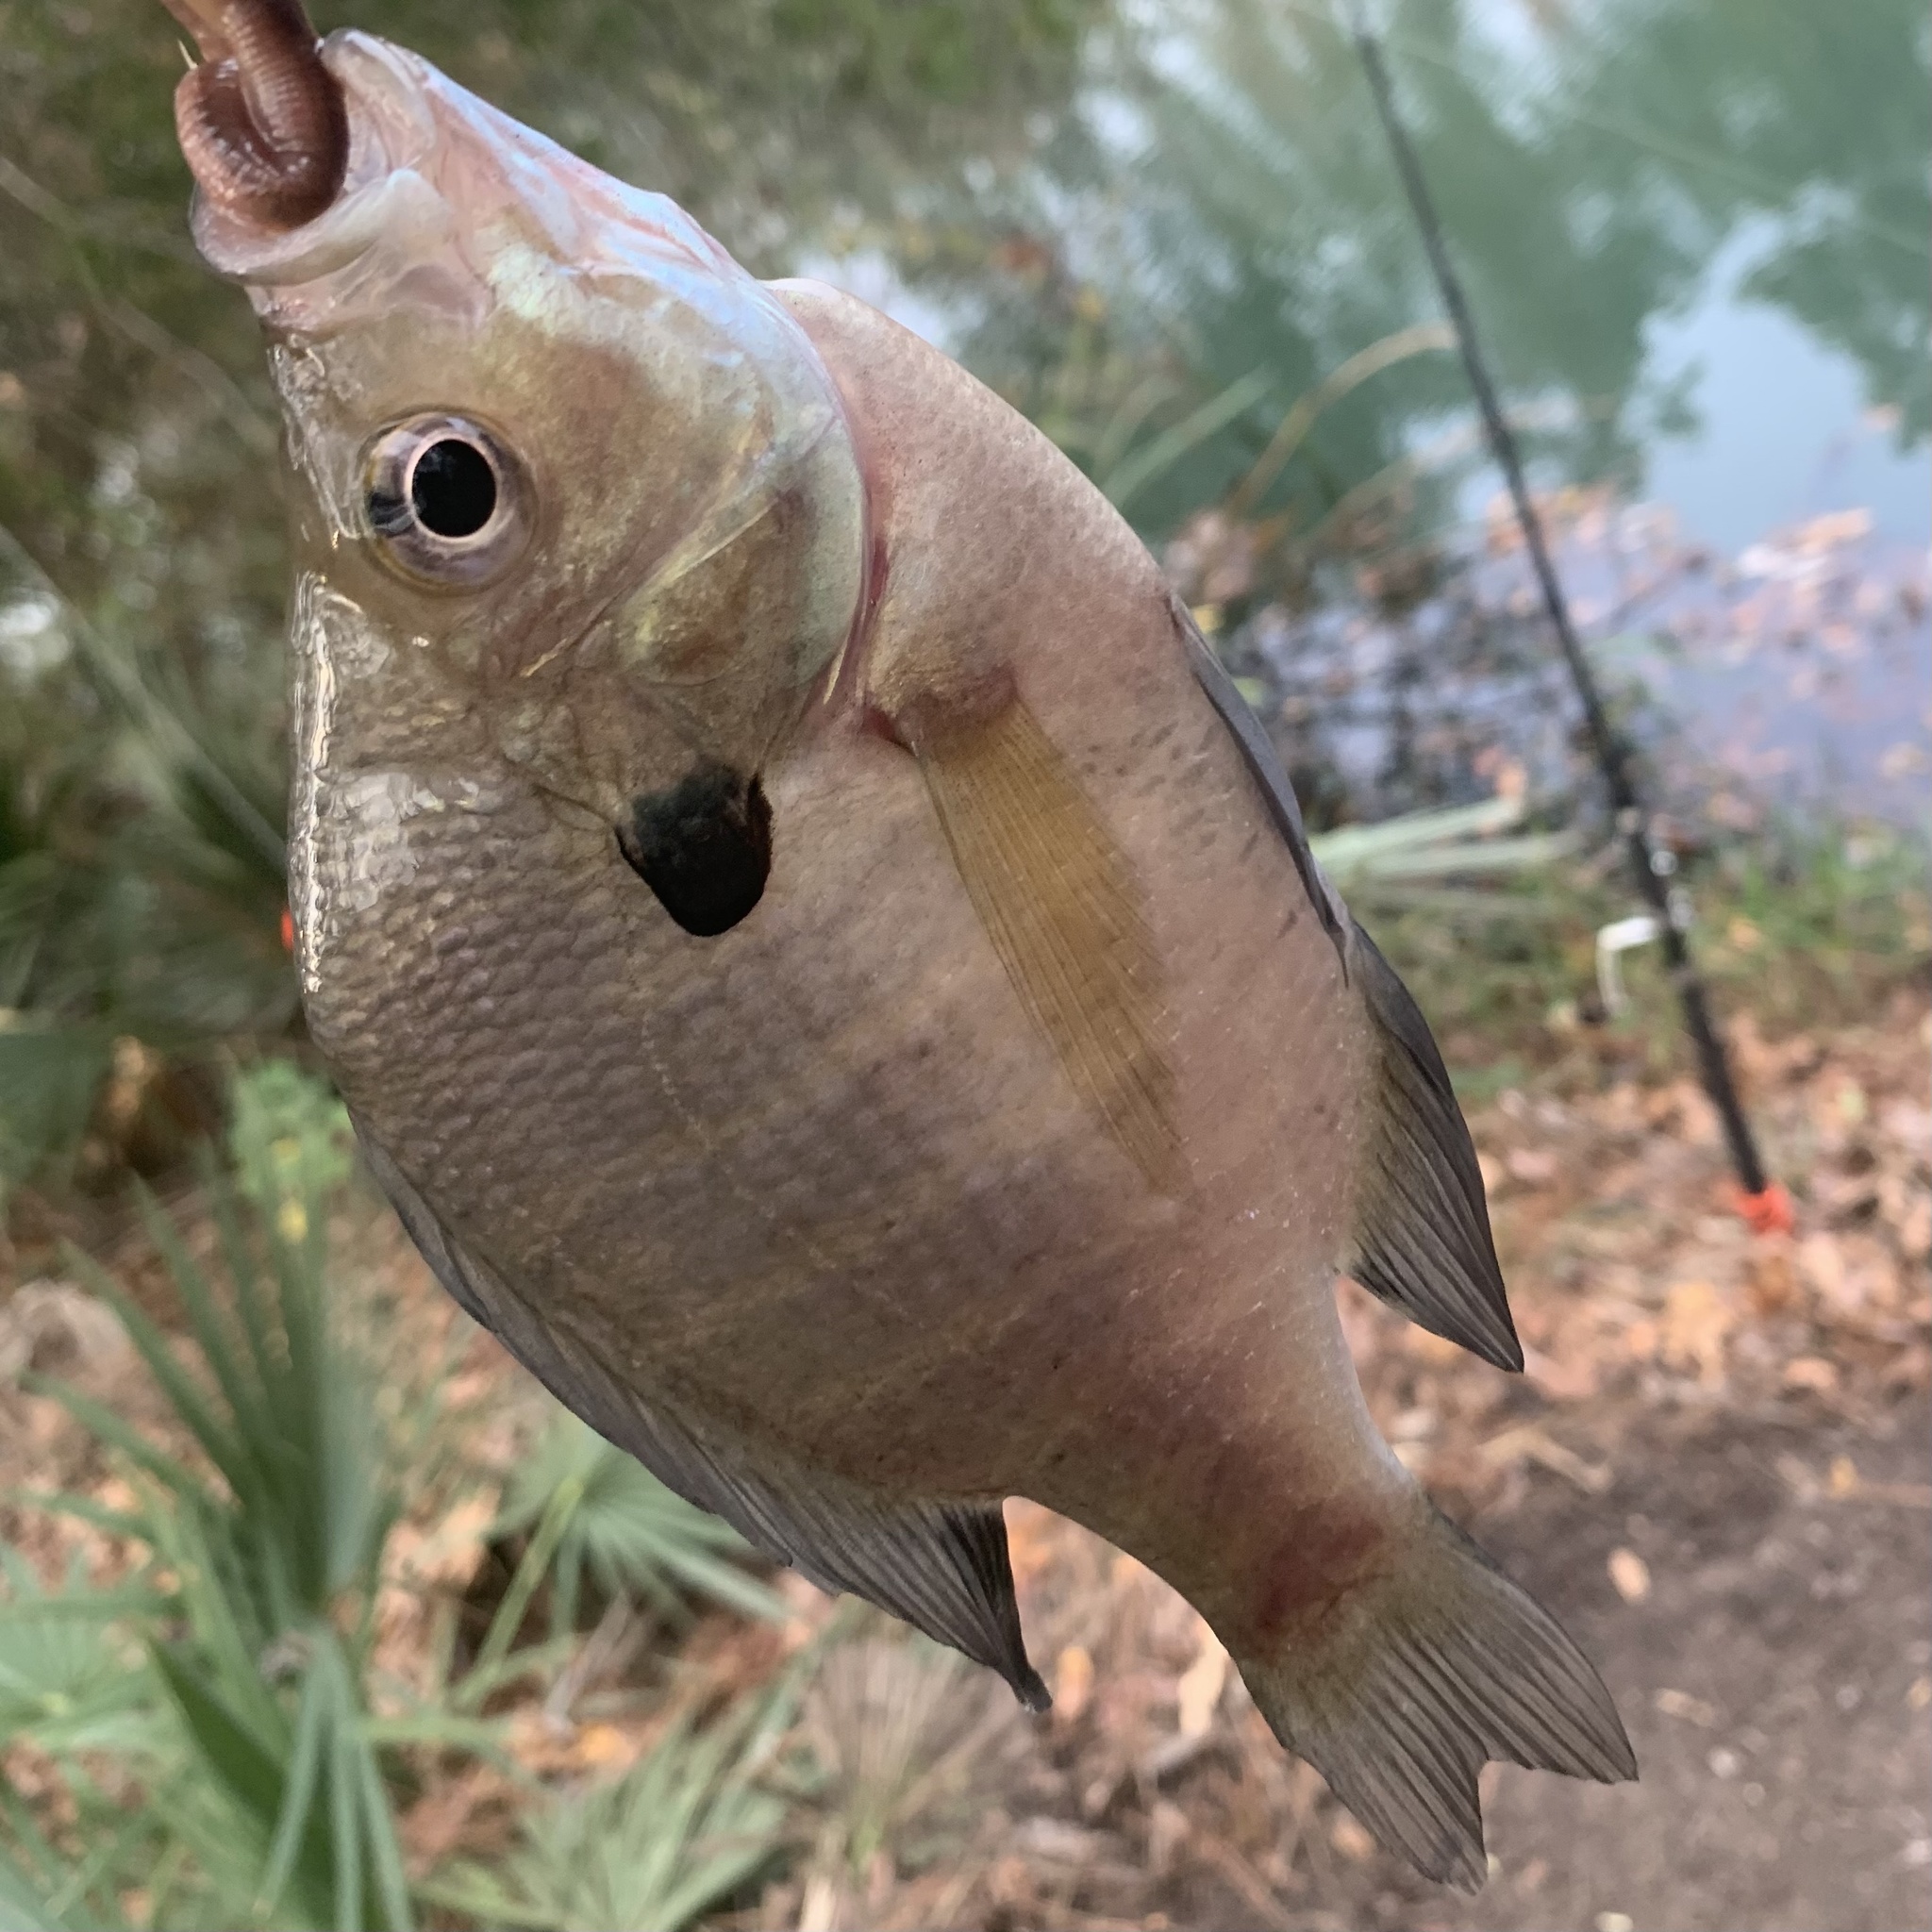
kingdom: Animalia
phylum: Chordata
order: Perciformes
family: Centrarchidae
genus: Lepomis
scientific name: Lepomis macrochirus
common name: Bluegill
